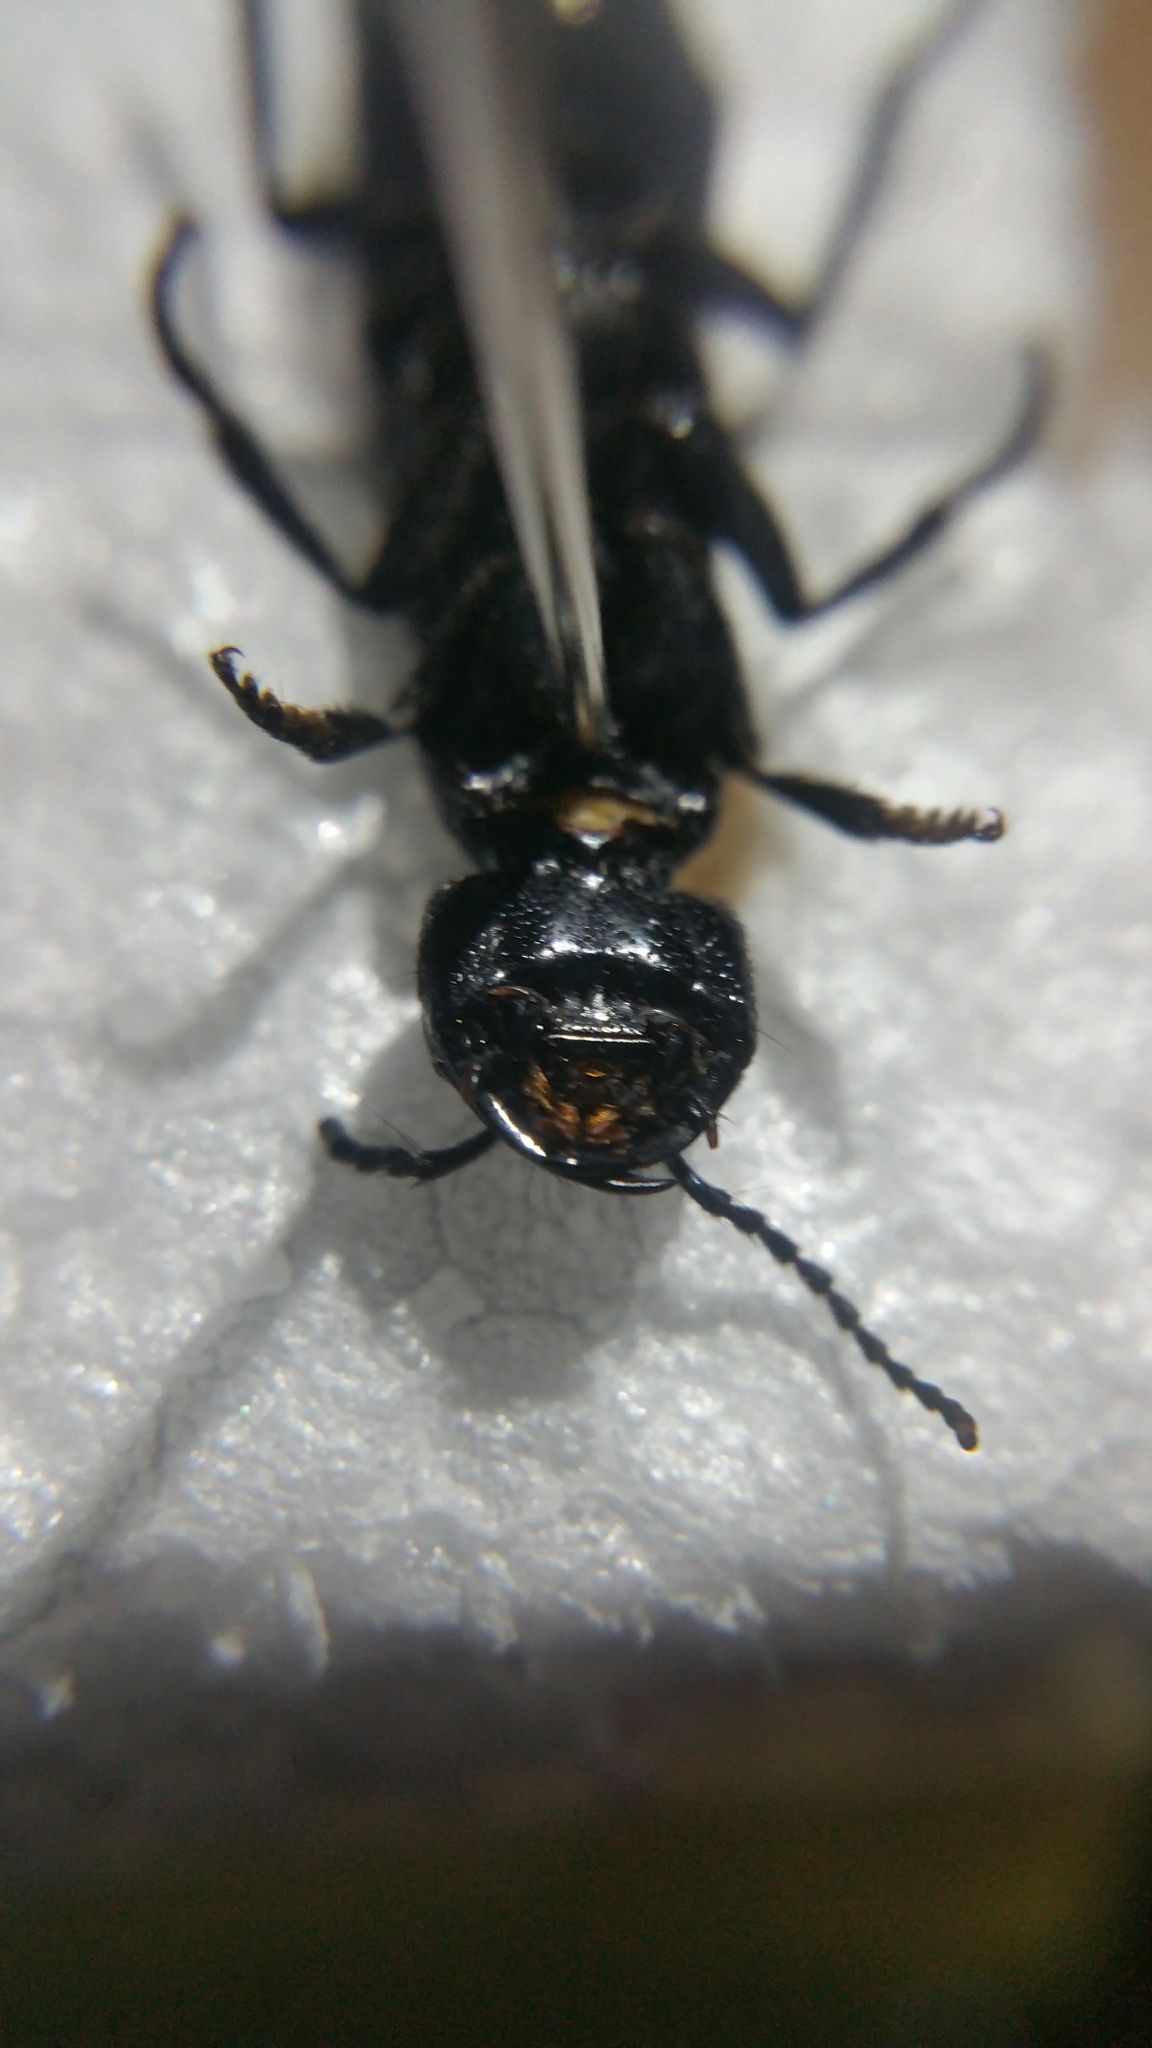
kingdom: Animalia
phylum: Arthropoda
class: Insecta
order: Coleoptera
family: Staphylinidae
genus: Ocypus
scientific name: Ocypus olens
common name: Devil's coach-horse
